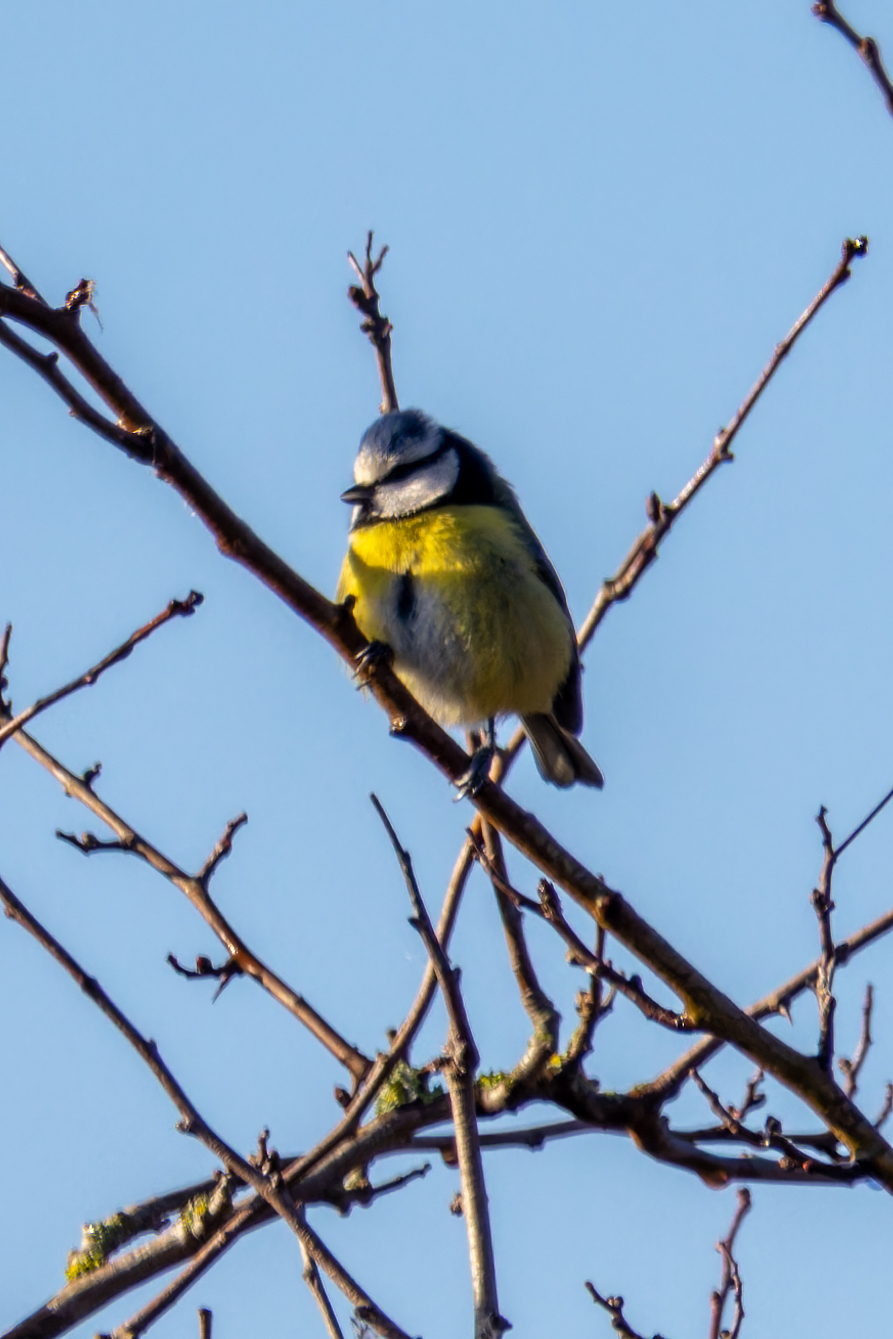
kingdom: Animalia
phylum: Chordata
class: Aves
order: Passeriformes
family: Paridae
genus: Cyanistes
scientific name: Cyanistes caeruleus
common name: Eurasian blue tit
